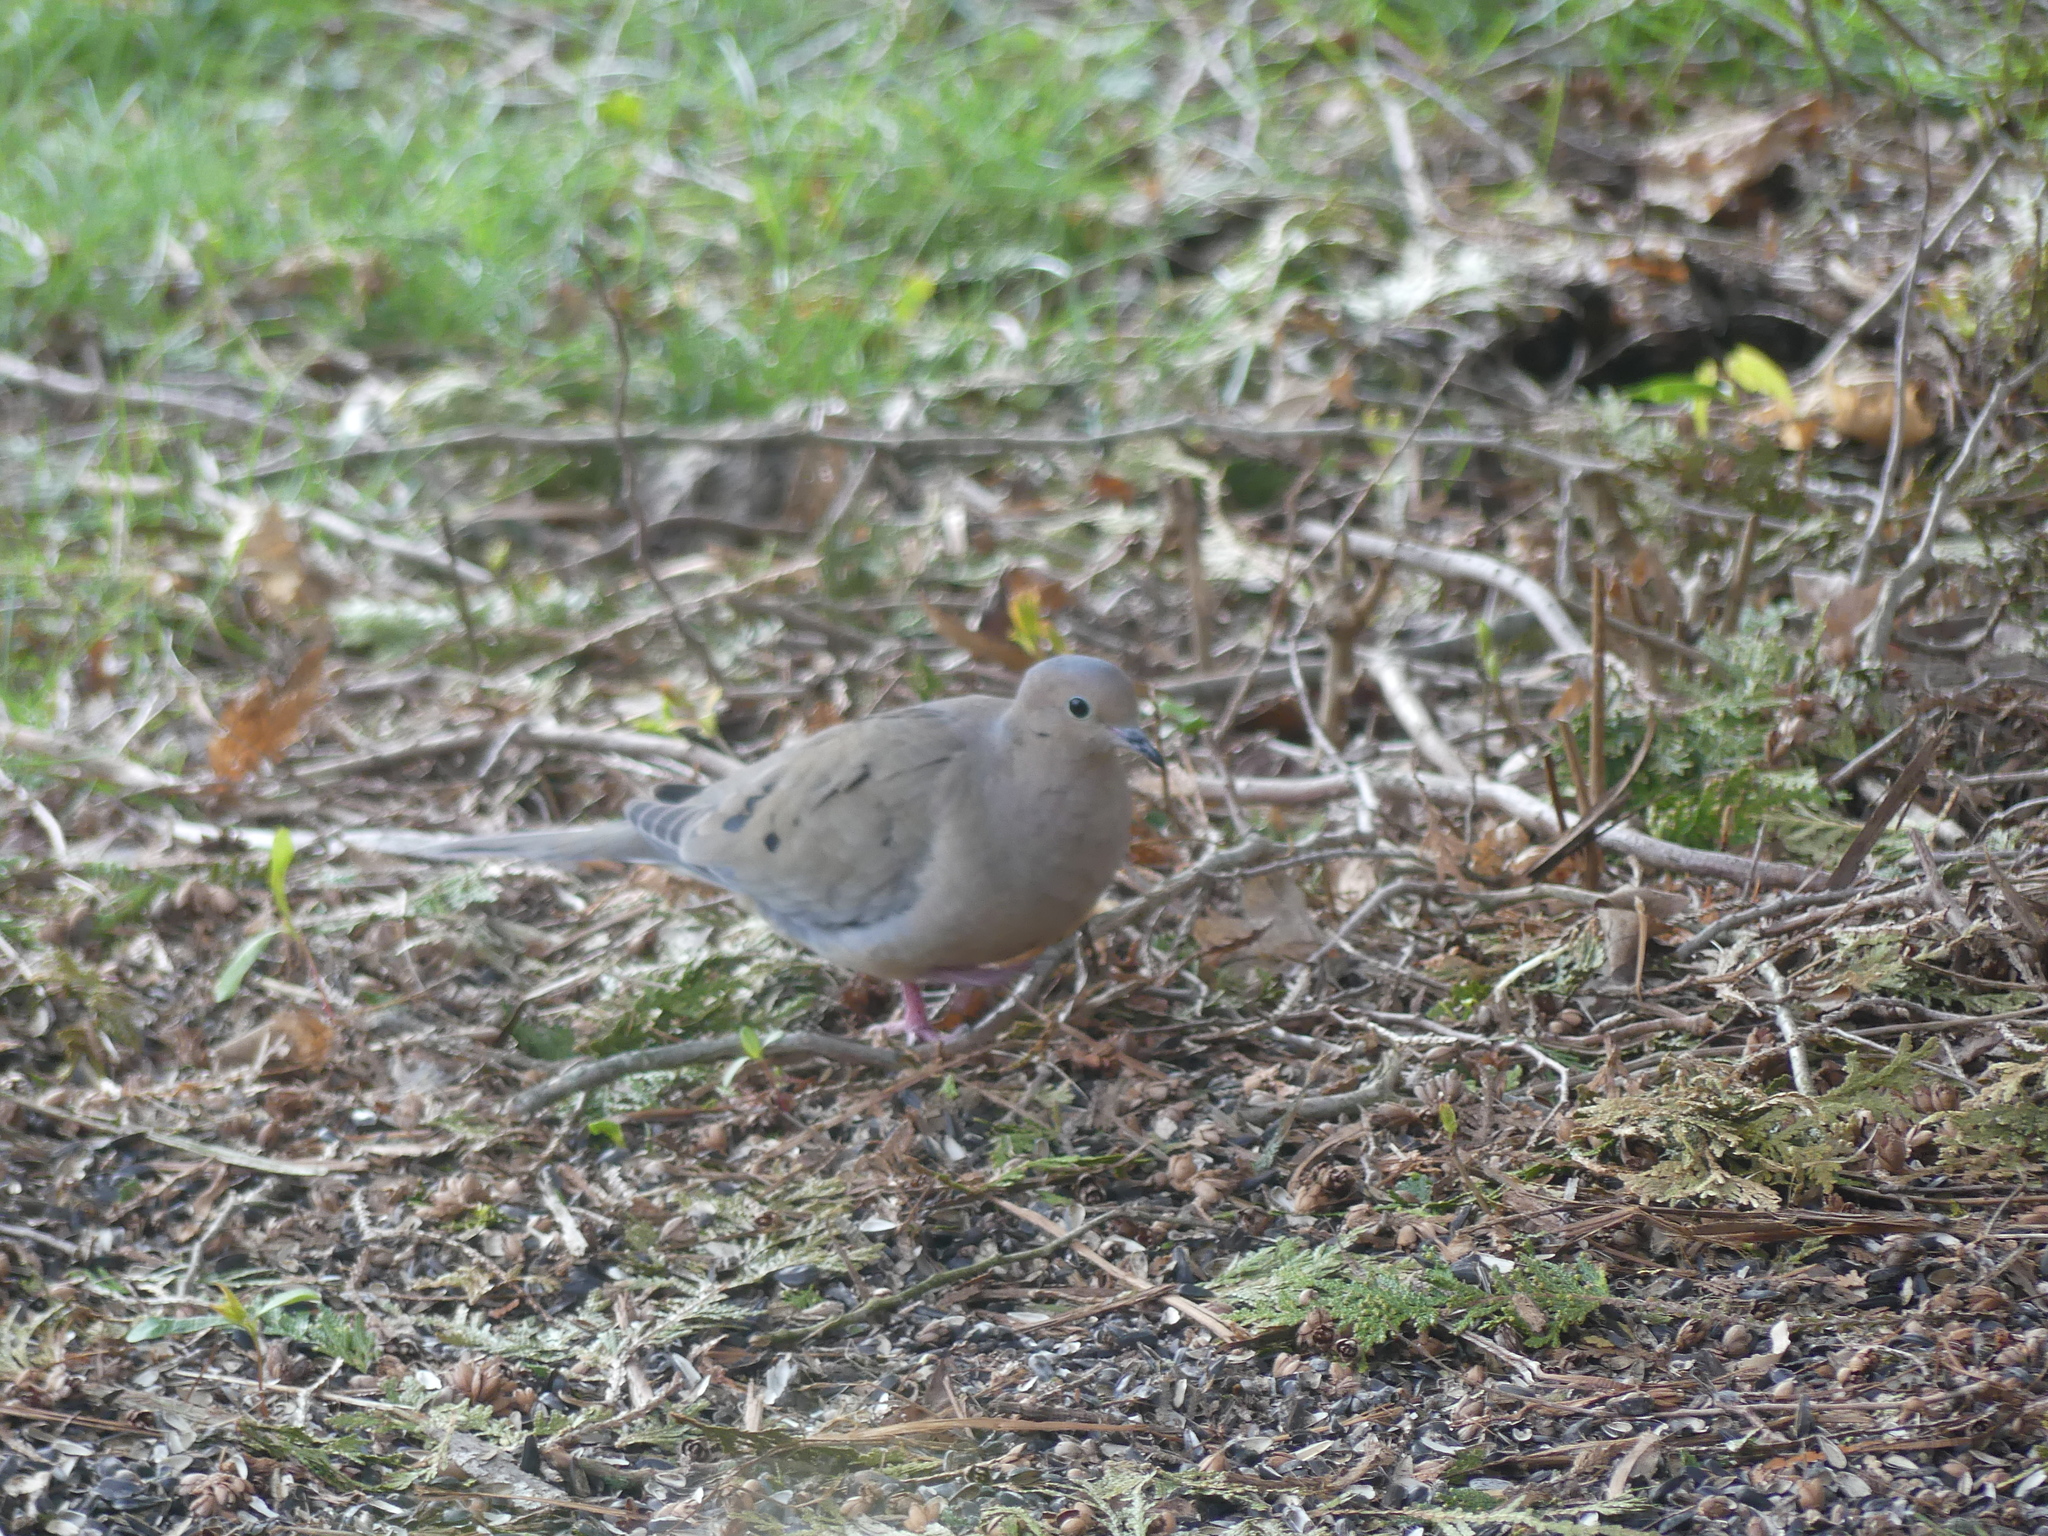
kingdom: Animalia
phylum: Chordata
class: Aves
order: Columbiformes
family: Columbidae
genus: Zenaida
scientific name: Zenaida macroura
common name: Mourning dove
